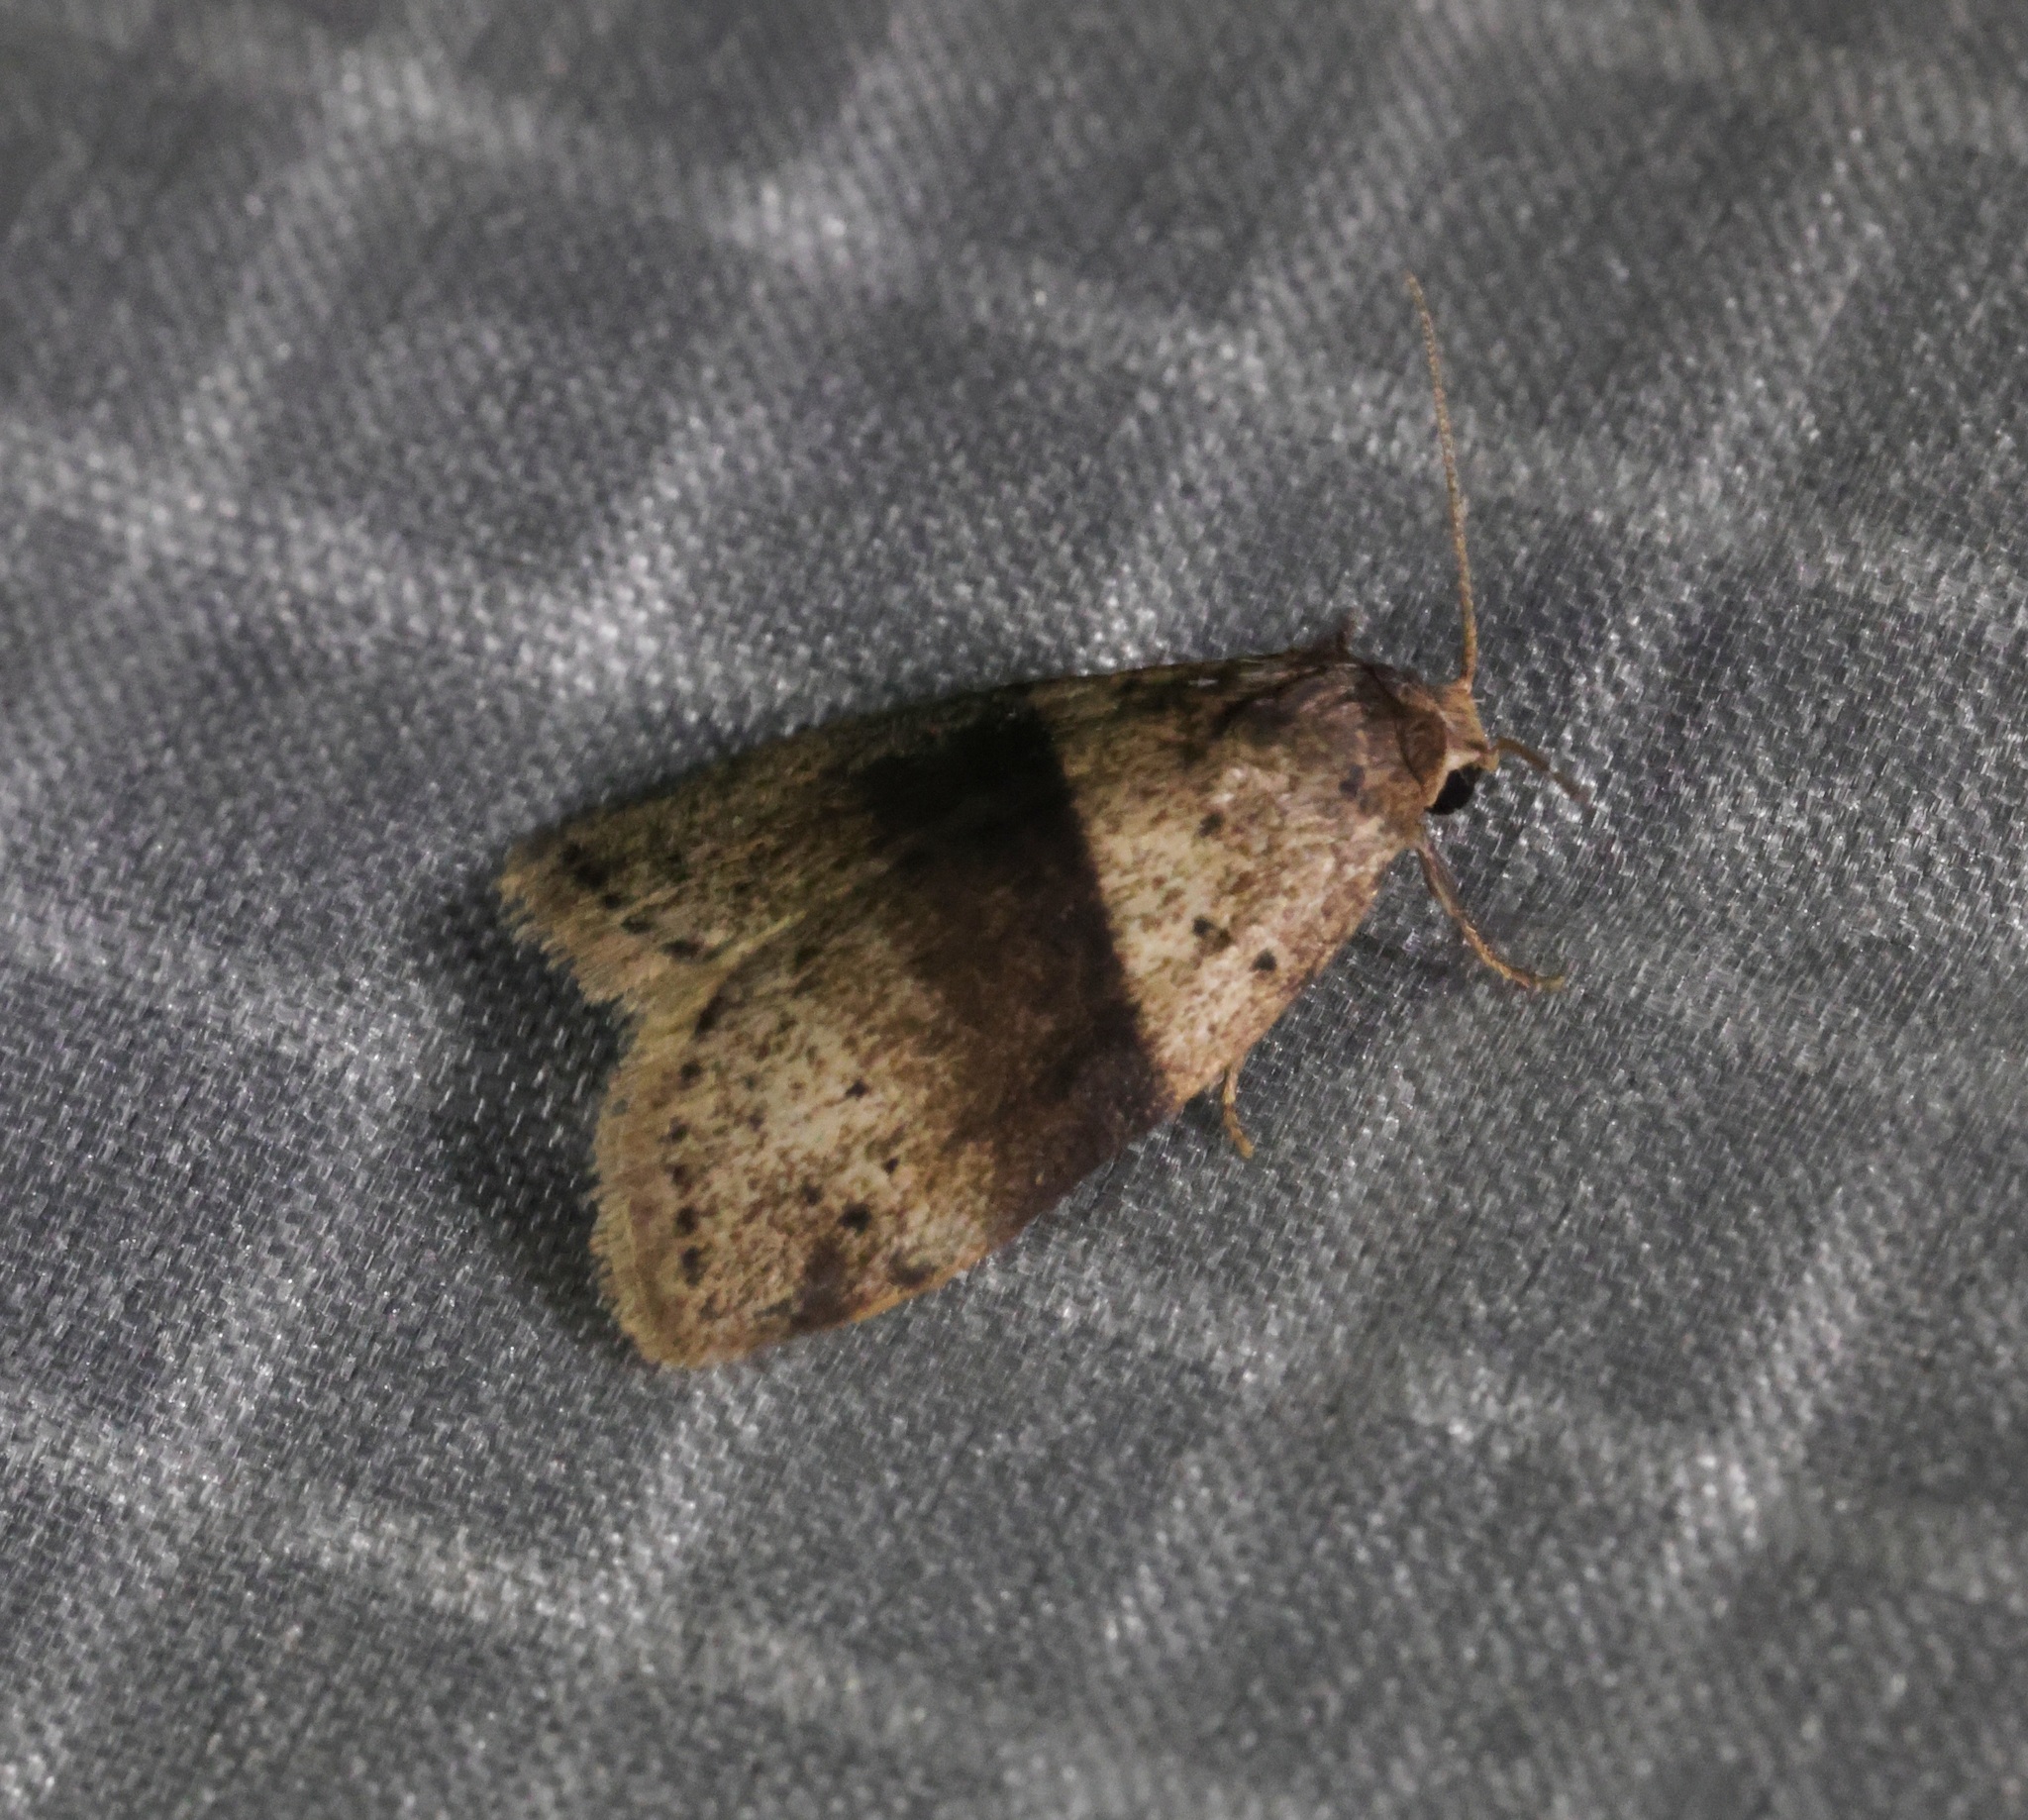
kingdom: Animalia
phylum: Arthropoda
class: Insecta
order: Lepidoptera
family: Erebidae
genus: Stictane
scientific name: Stictane rectilinea
